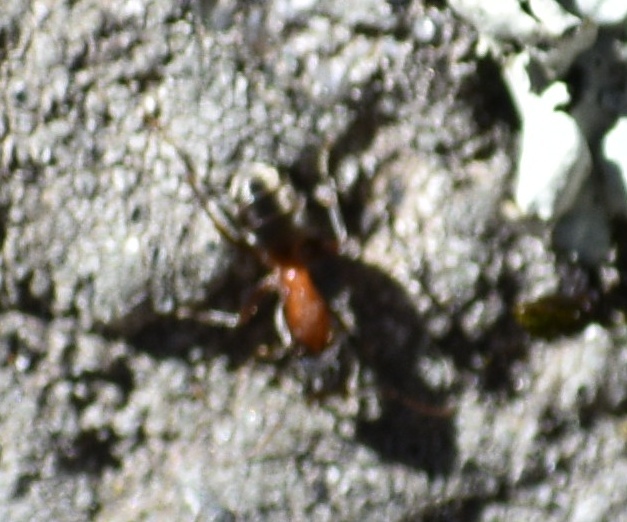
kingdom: Animalia
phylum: Arthropoda
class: Insecta
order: Hymenoptera
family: Formicidae
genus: Liometopum
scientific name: Liometopum occidentale
